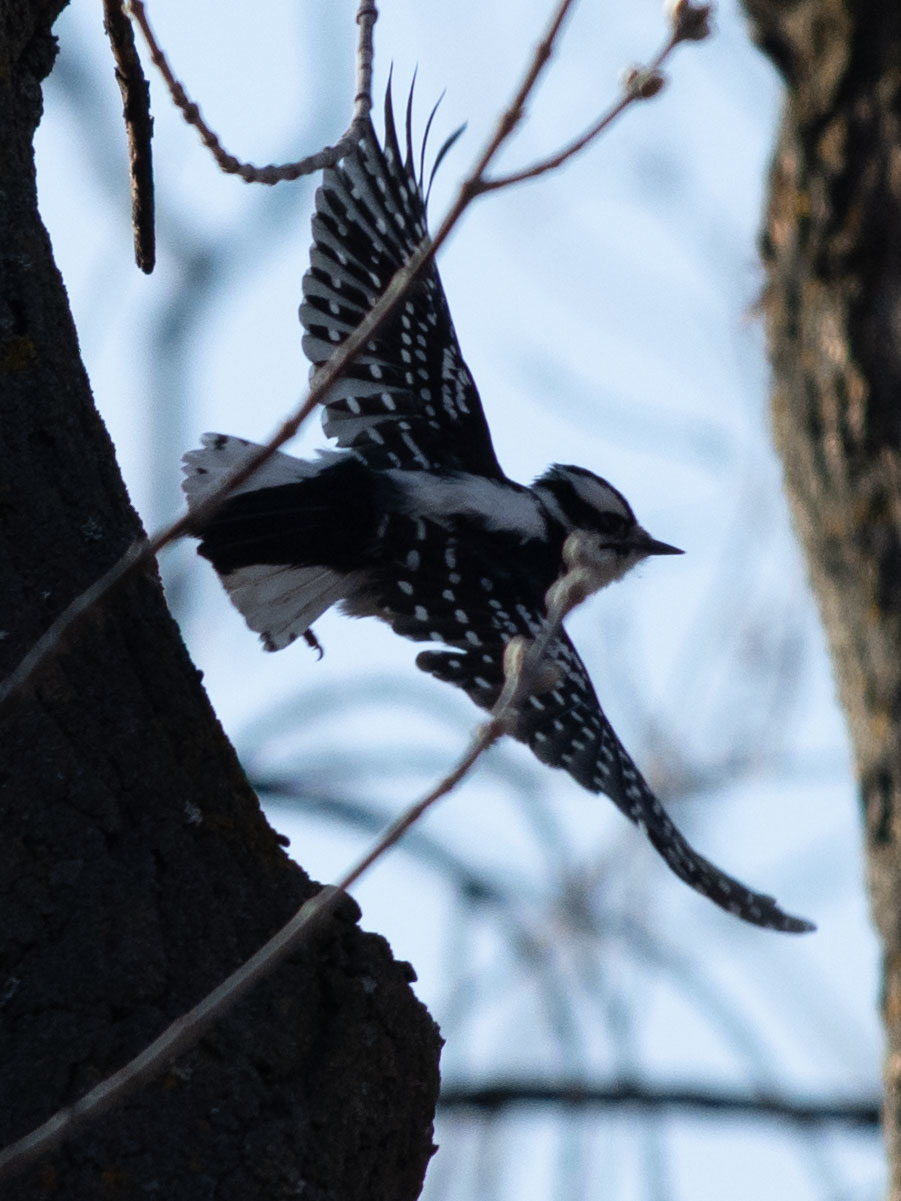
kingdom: Animalia
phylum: Chordata
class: Aves
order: Piciformes
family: Picidae
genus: Dryobates
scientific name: Dryobates pubescens
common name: Downy woodpecker
